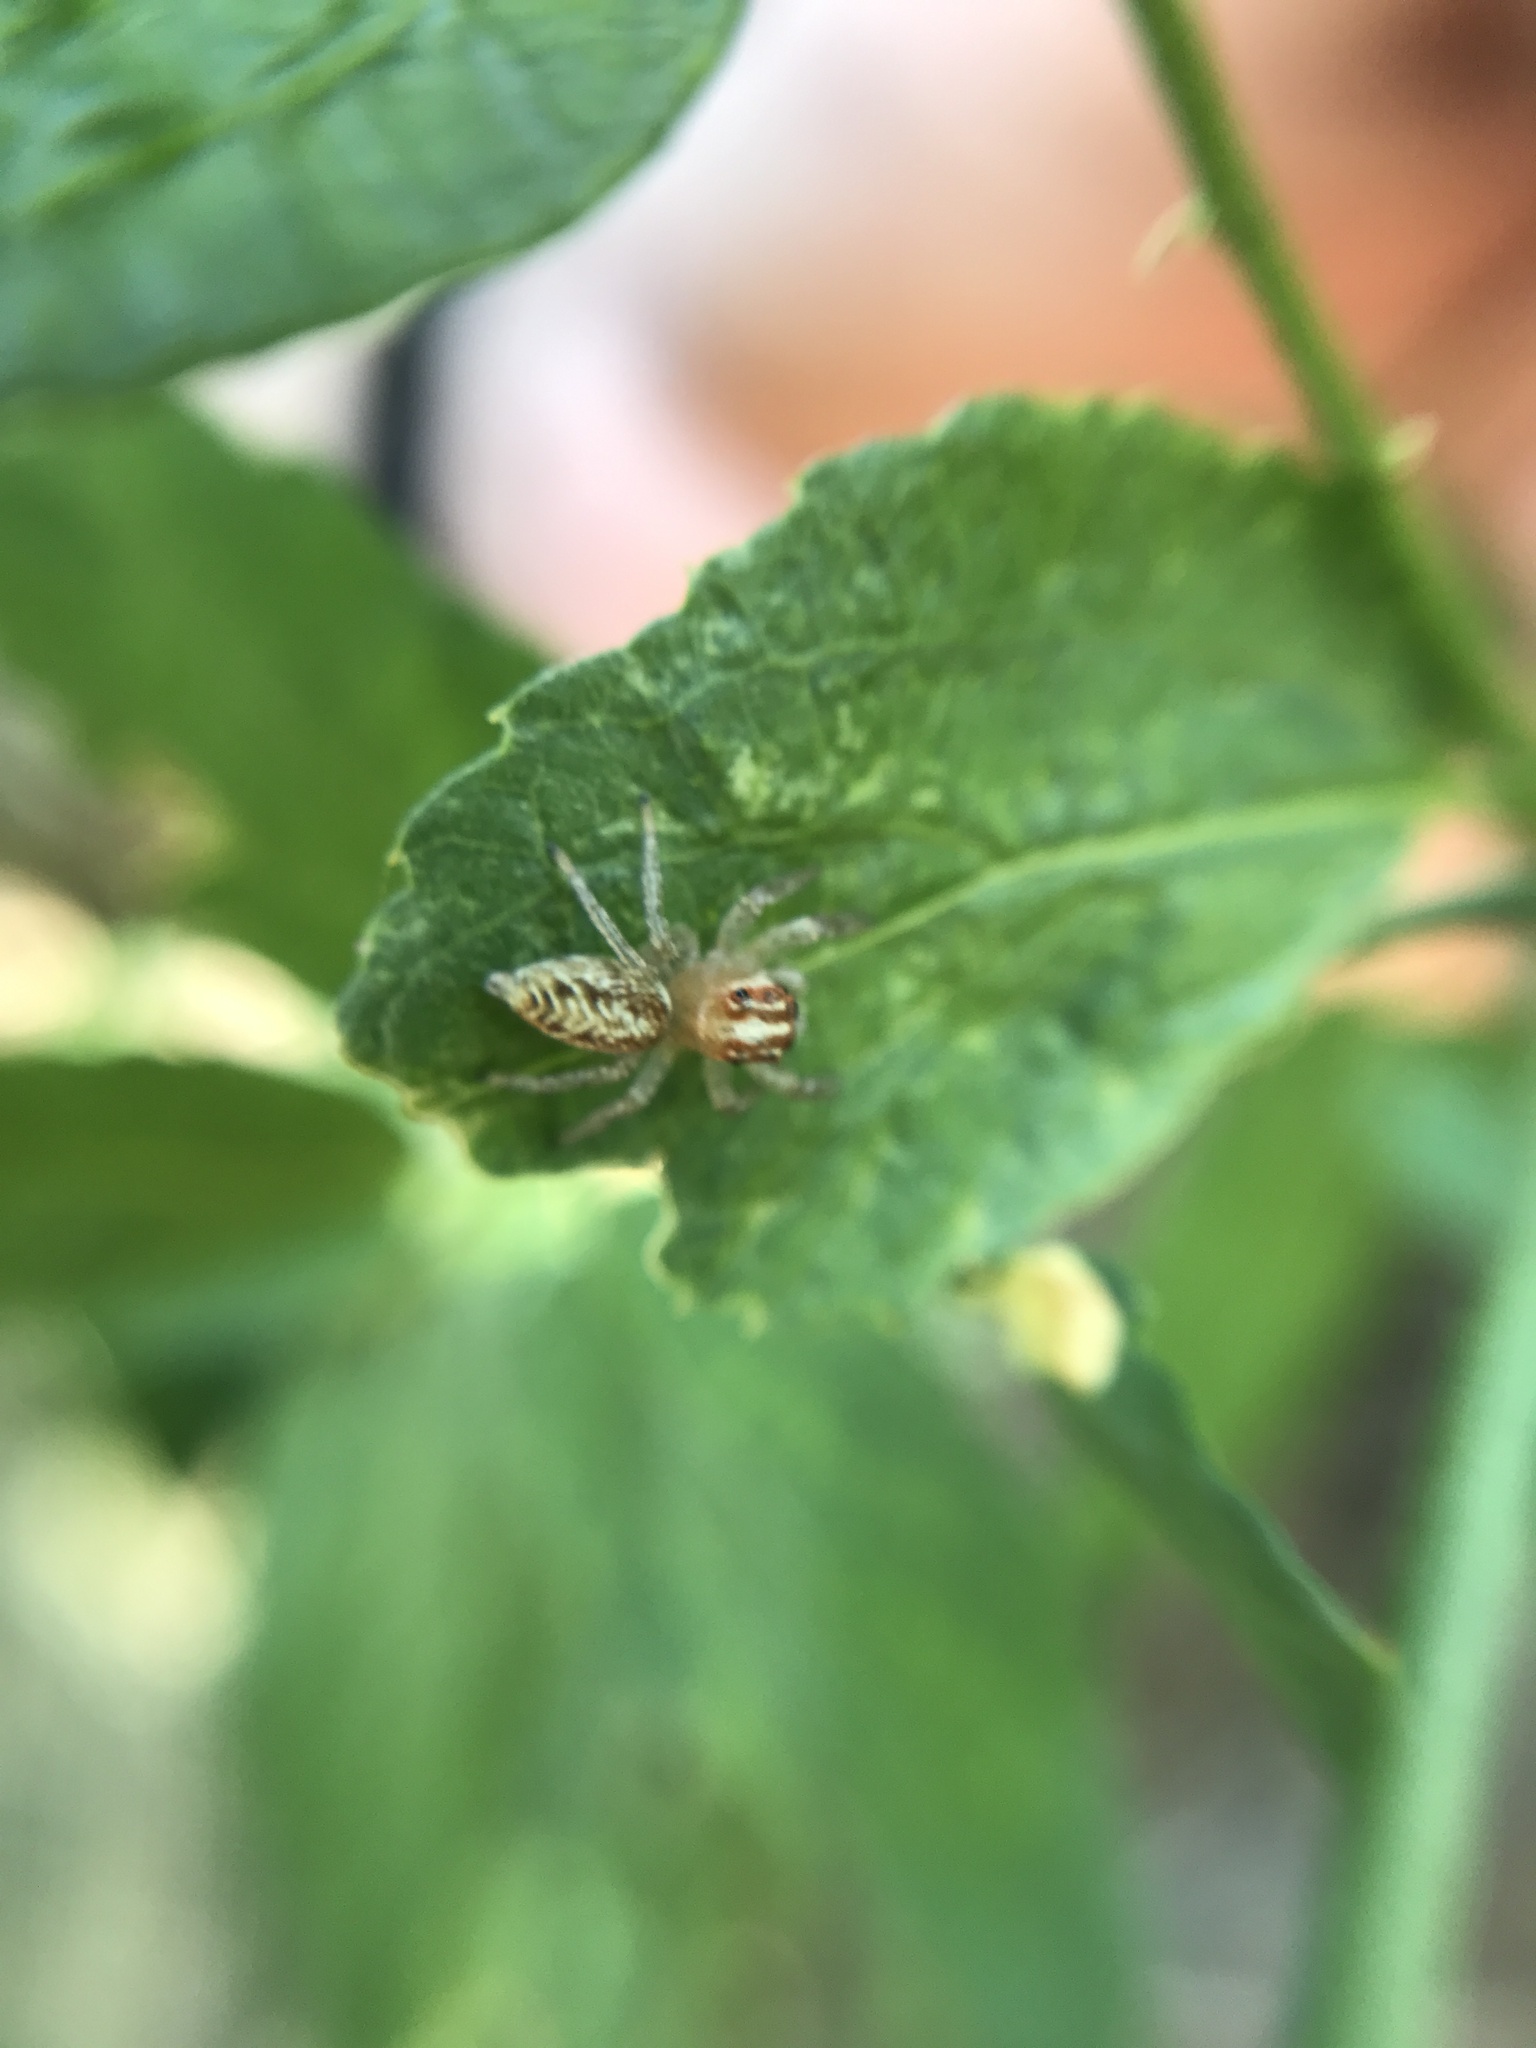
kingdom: Animalia
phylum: Arthropoda
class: Arachnida
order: Araneae
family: Salticidae
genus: Chira
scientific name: Chira gounellei
